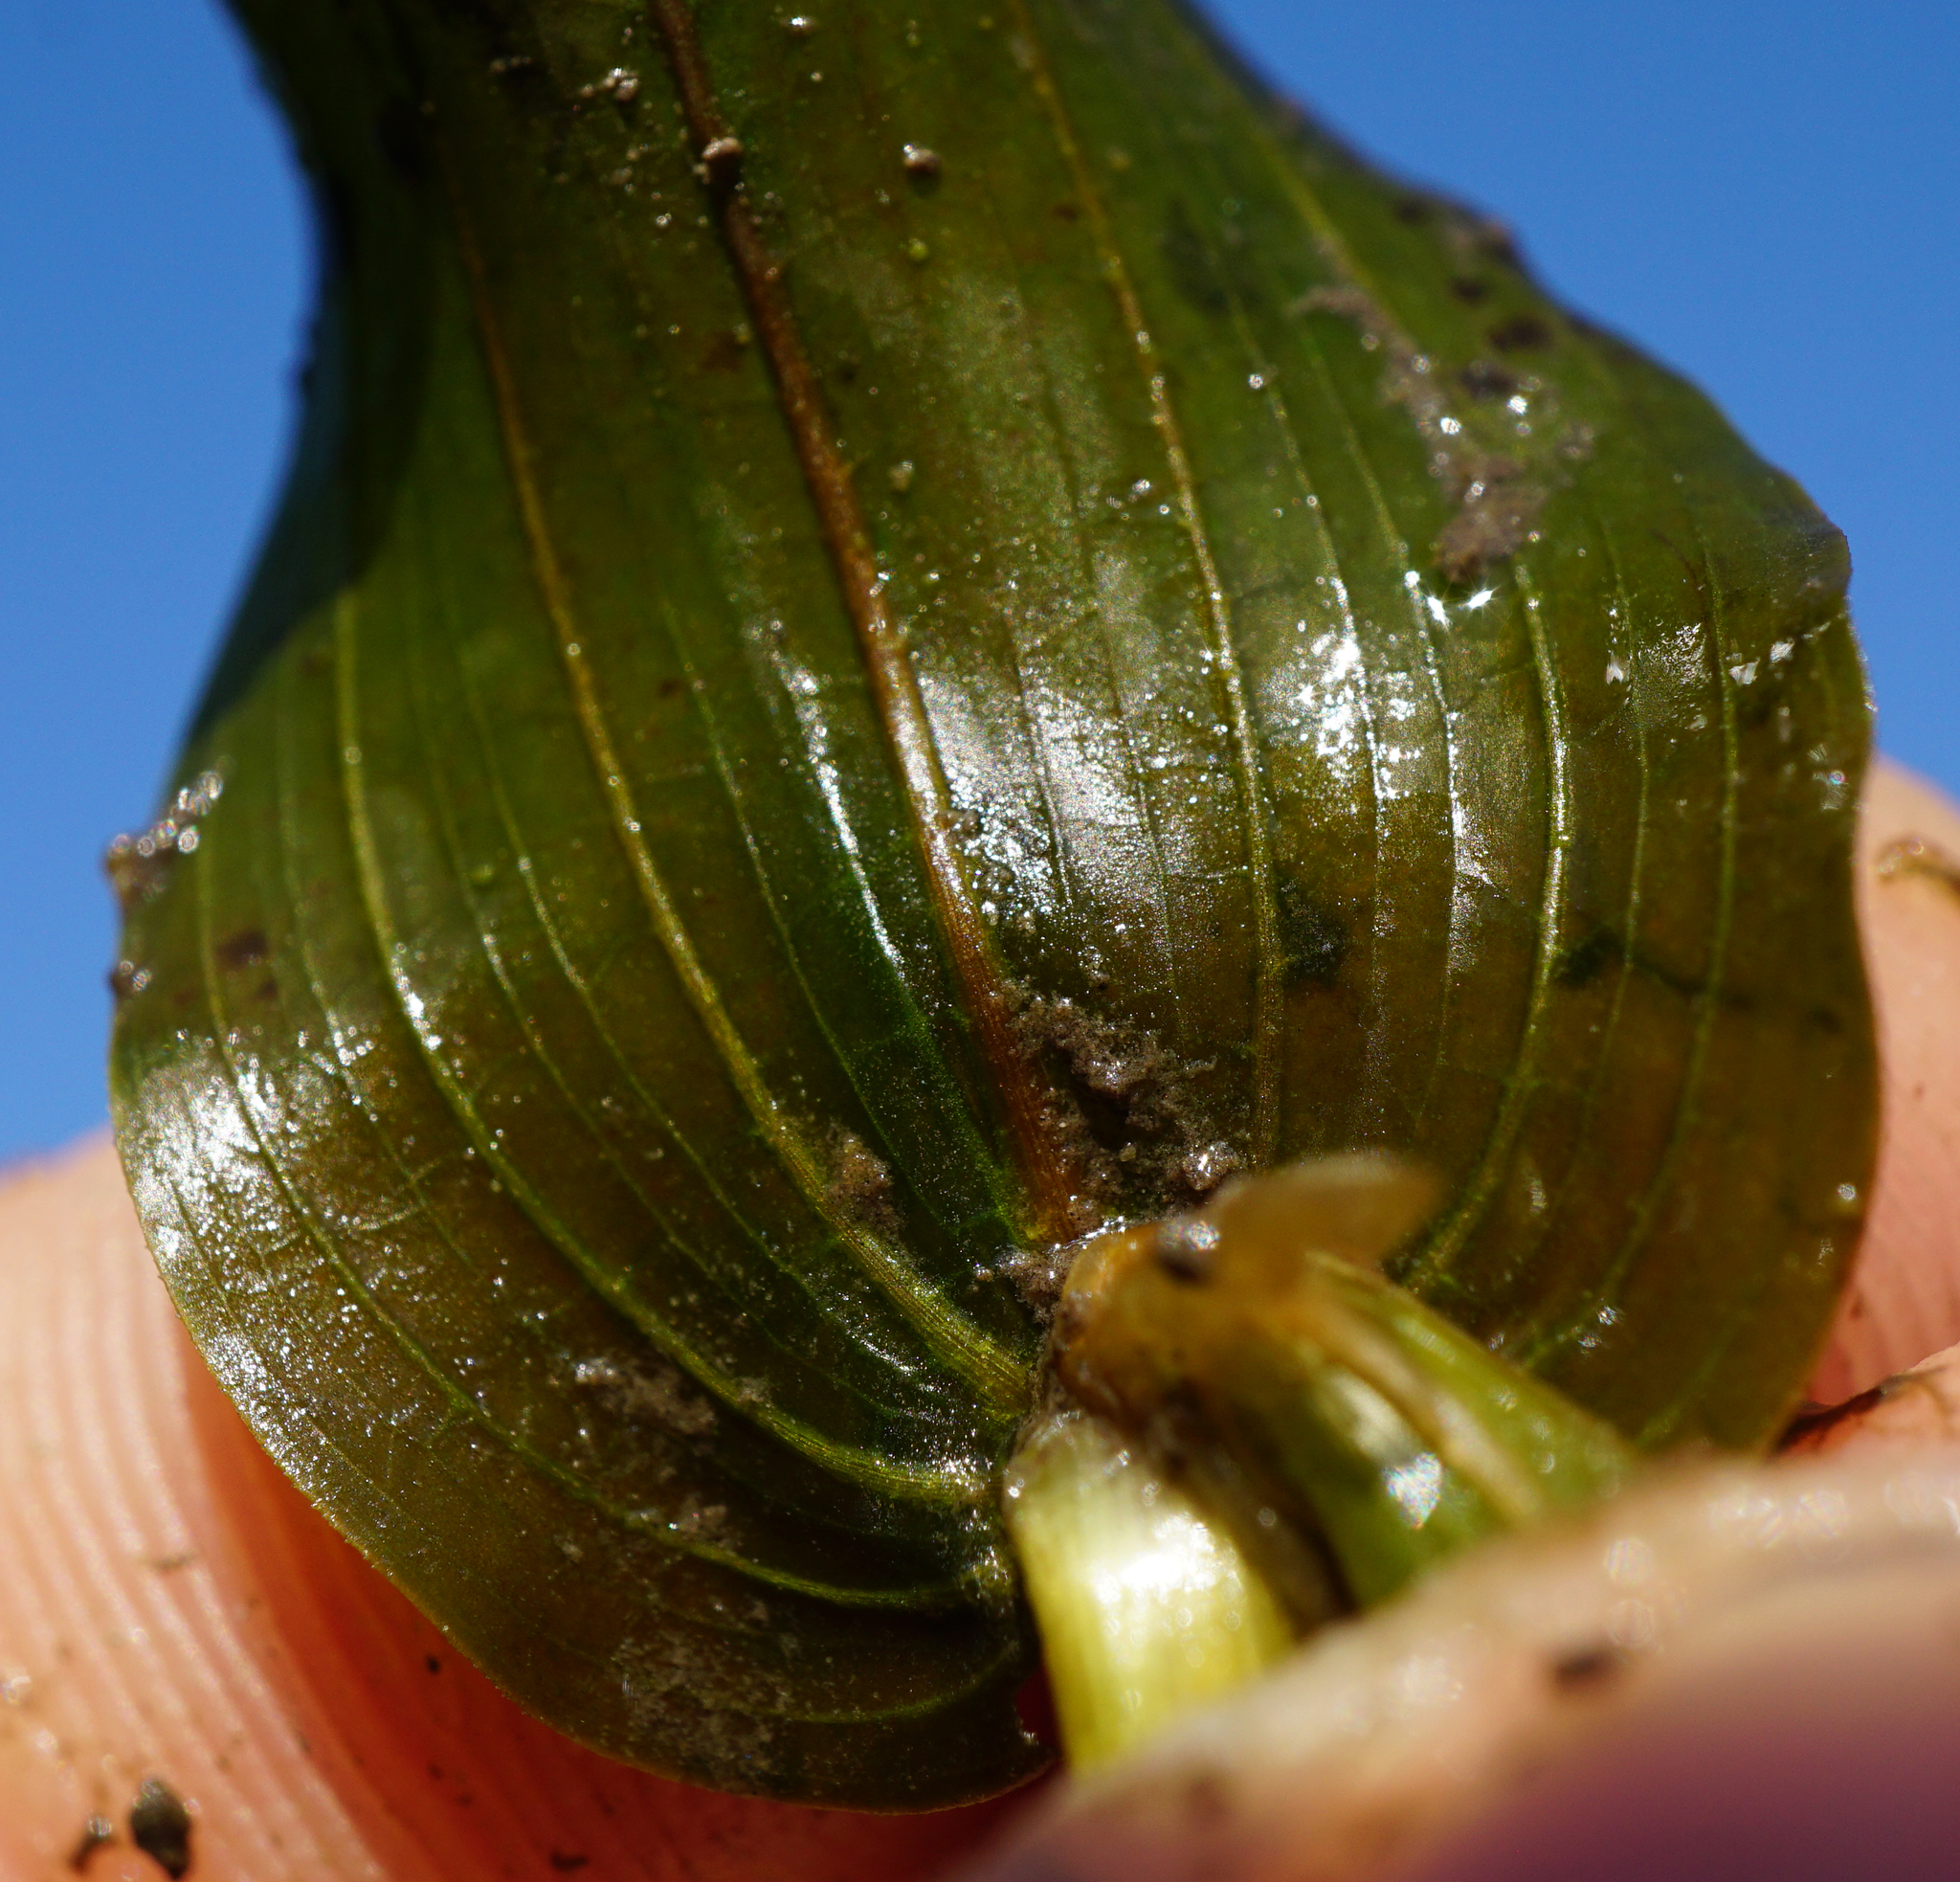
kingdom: Plantae
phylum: Tracheophyta
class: Liliopsida
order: Alismatales
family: Potamogetonaceae
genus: Potamogeton
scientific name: Potamogeton perfoliatus
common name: Perfoliate pondweed
